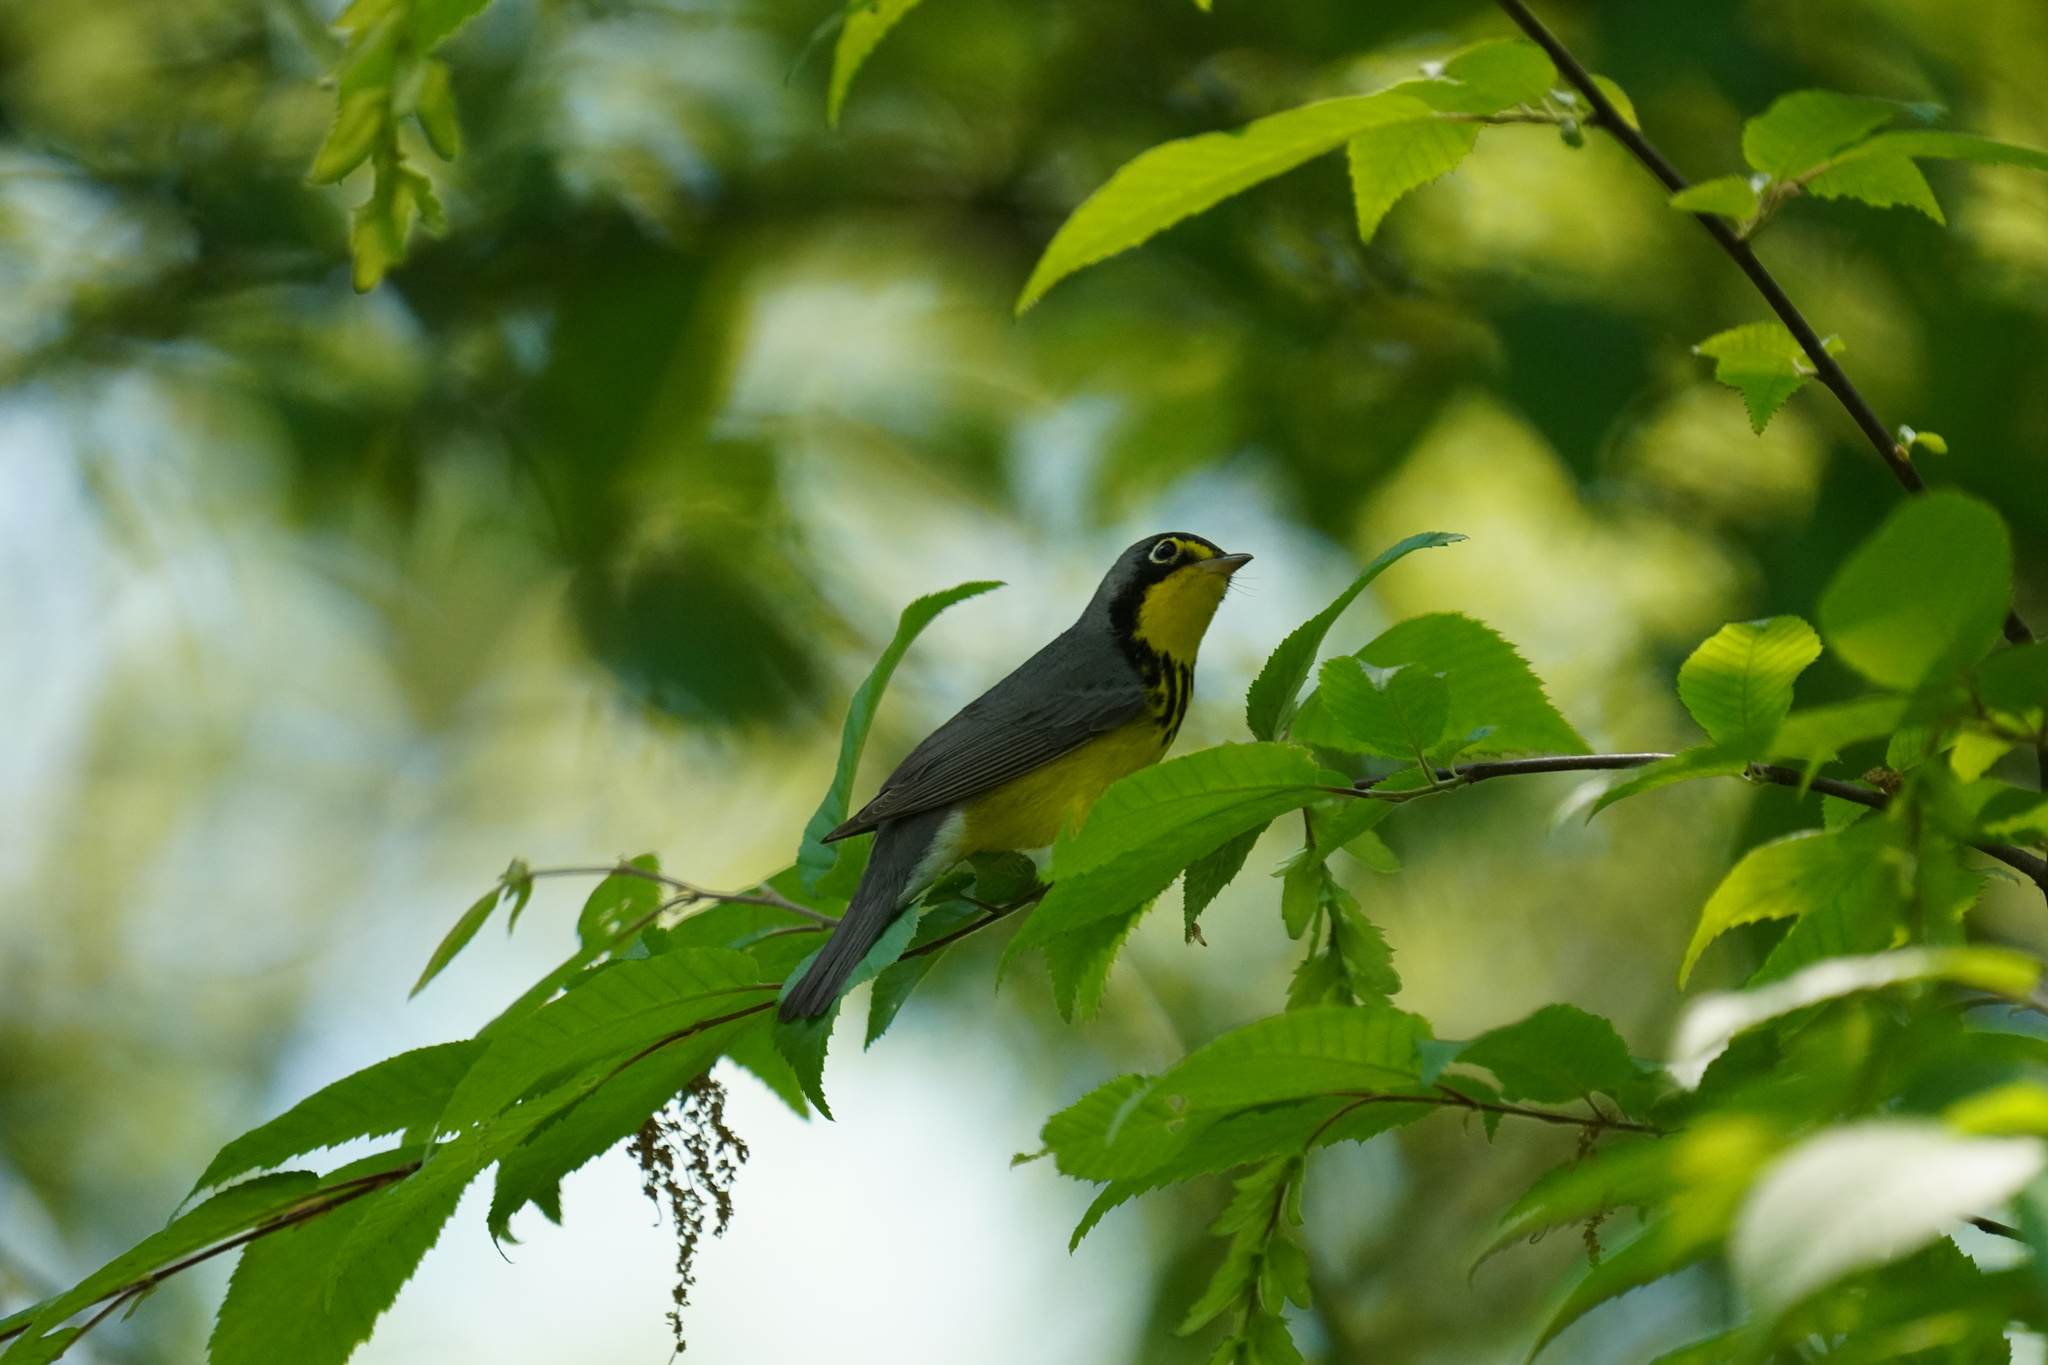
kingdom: Animalia
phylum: Chordata
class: Aves
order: Passeriformes
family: Parulidae
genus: Cardellina
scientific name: Cardellina canadensis
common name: Canada warbler
